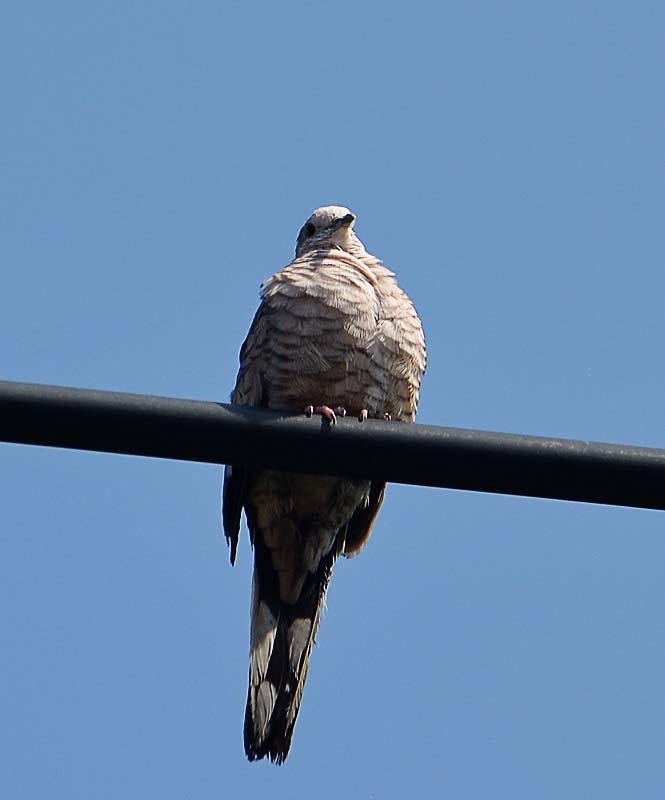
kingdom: Animalia
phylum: Chordata
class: Aves
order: Columbiformes
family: Columbidae
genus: Columbina
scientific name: Columbina inca
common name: Inca dove
